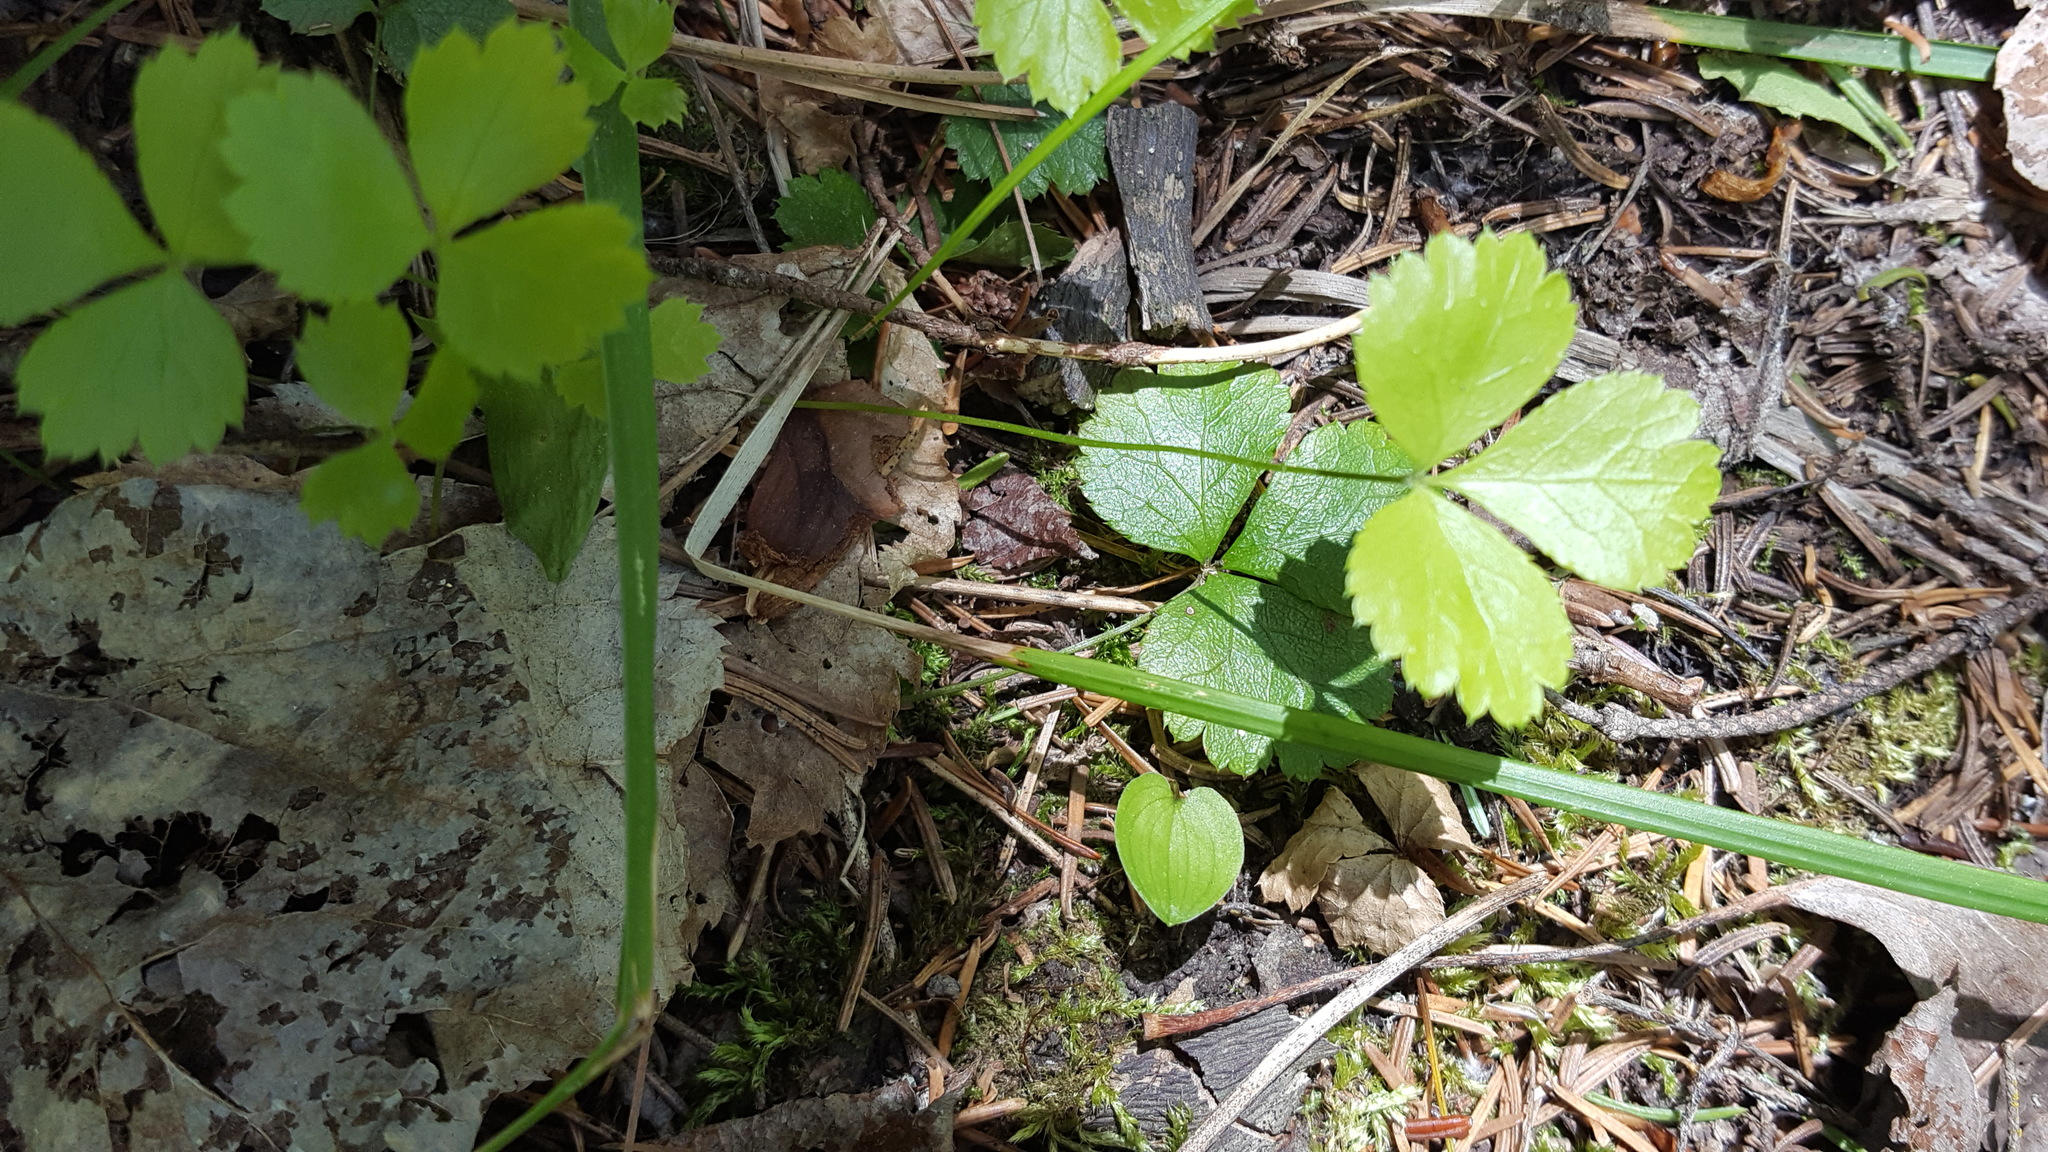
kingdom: Plantae
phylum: Tracheophyta
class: Magnoliopsida
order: Ranunculales
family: Ranunculaceae
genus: Coptis
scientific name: Coptis trifolia
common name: Canker-root
